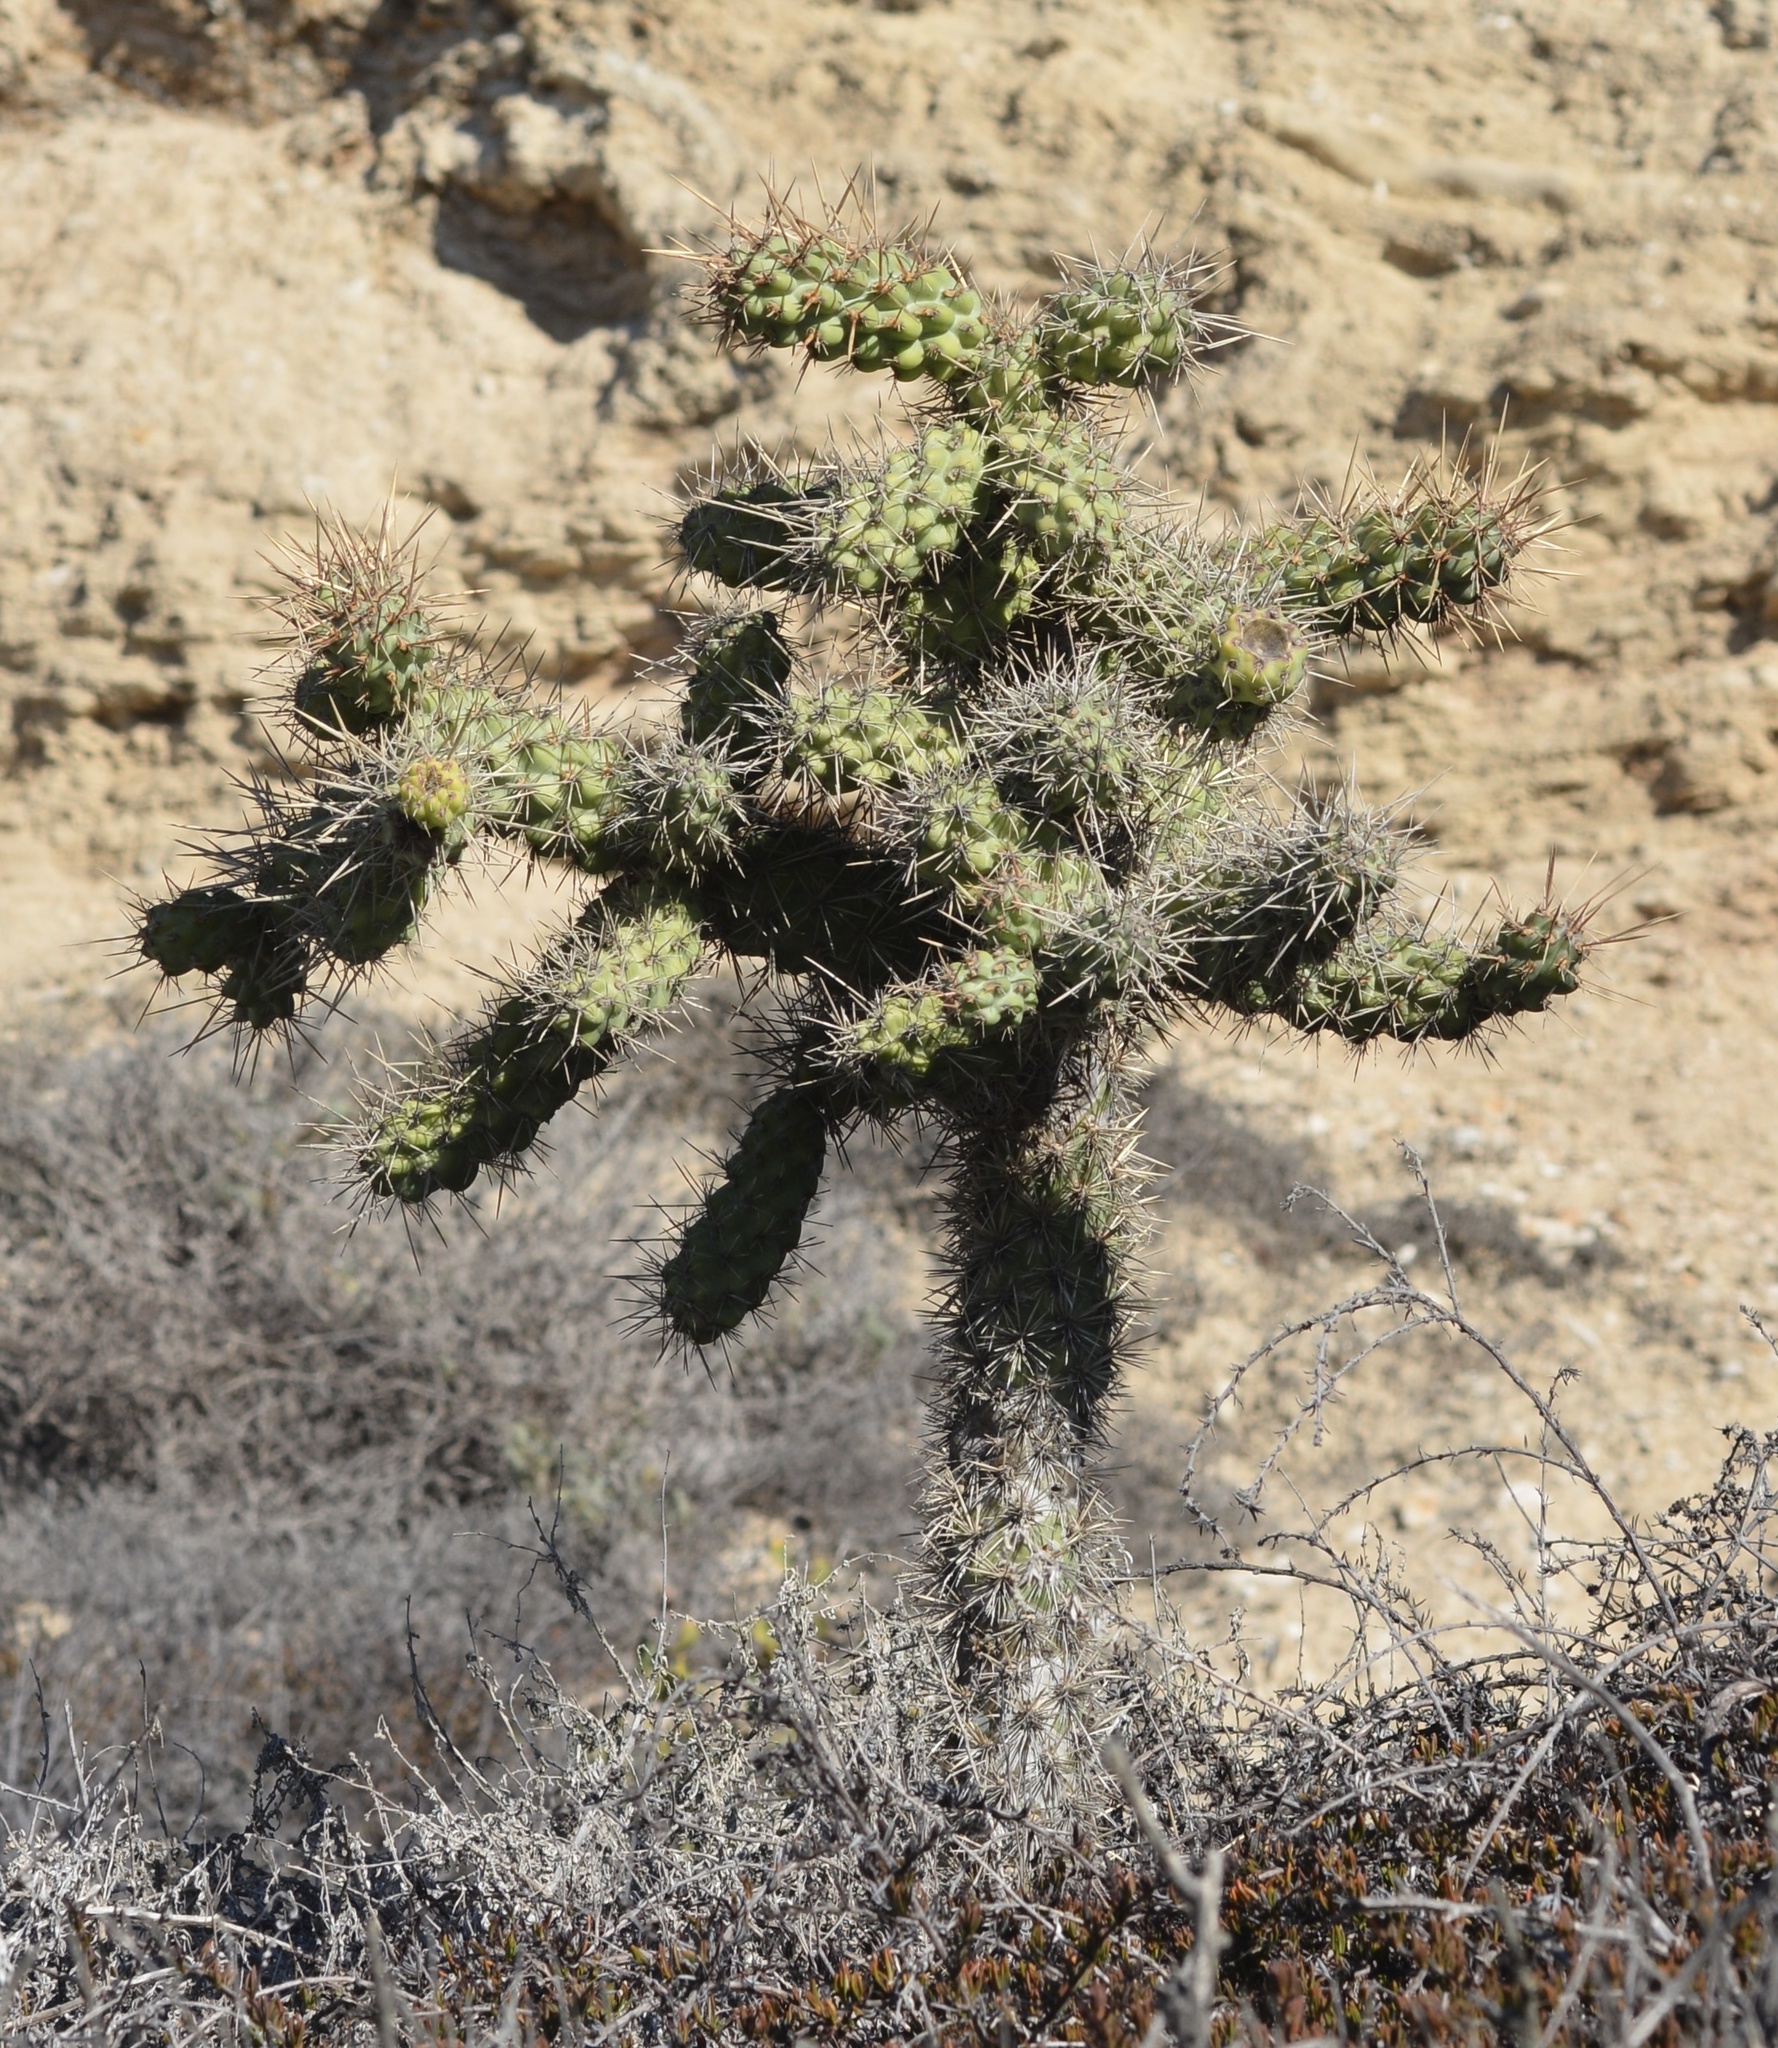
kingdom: Plantae
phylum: Tracheophyta
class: Magnoliopsida
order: Caryophyllales
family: Cactaceae
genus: Cylindropuntia
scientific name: Cylindropuntia prolifera
